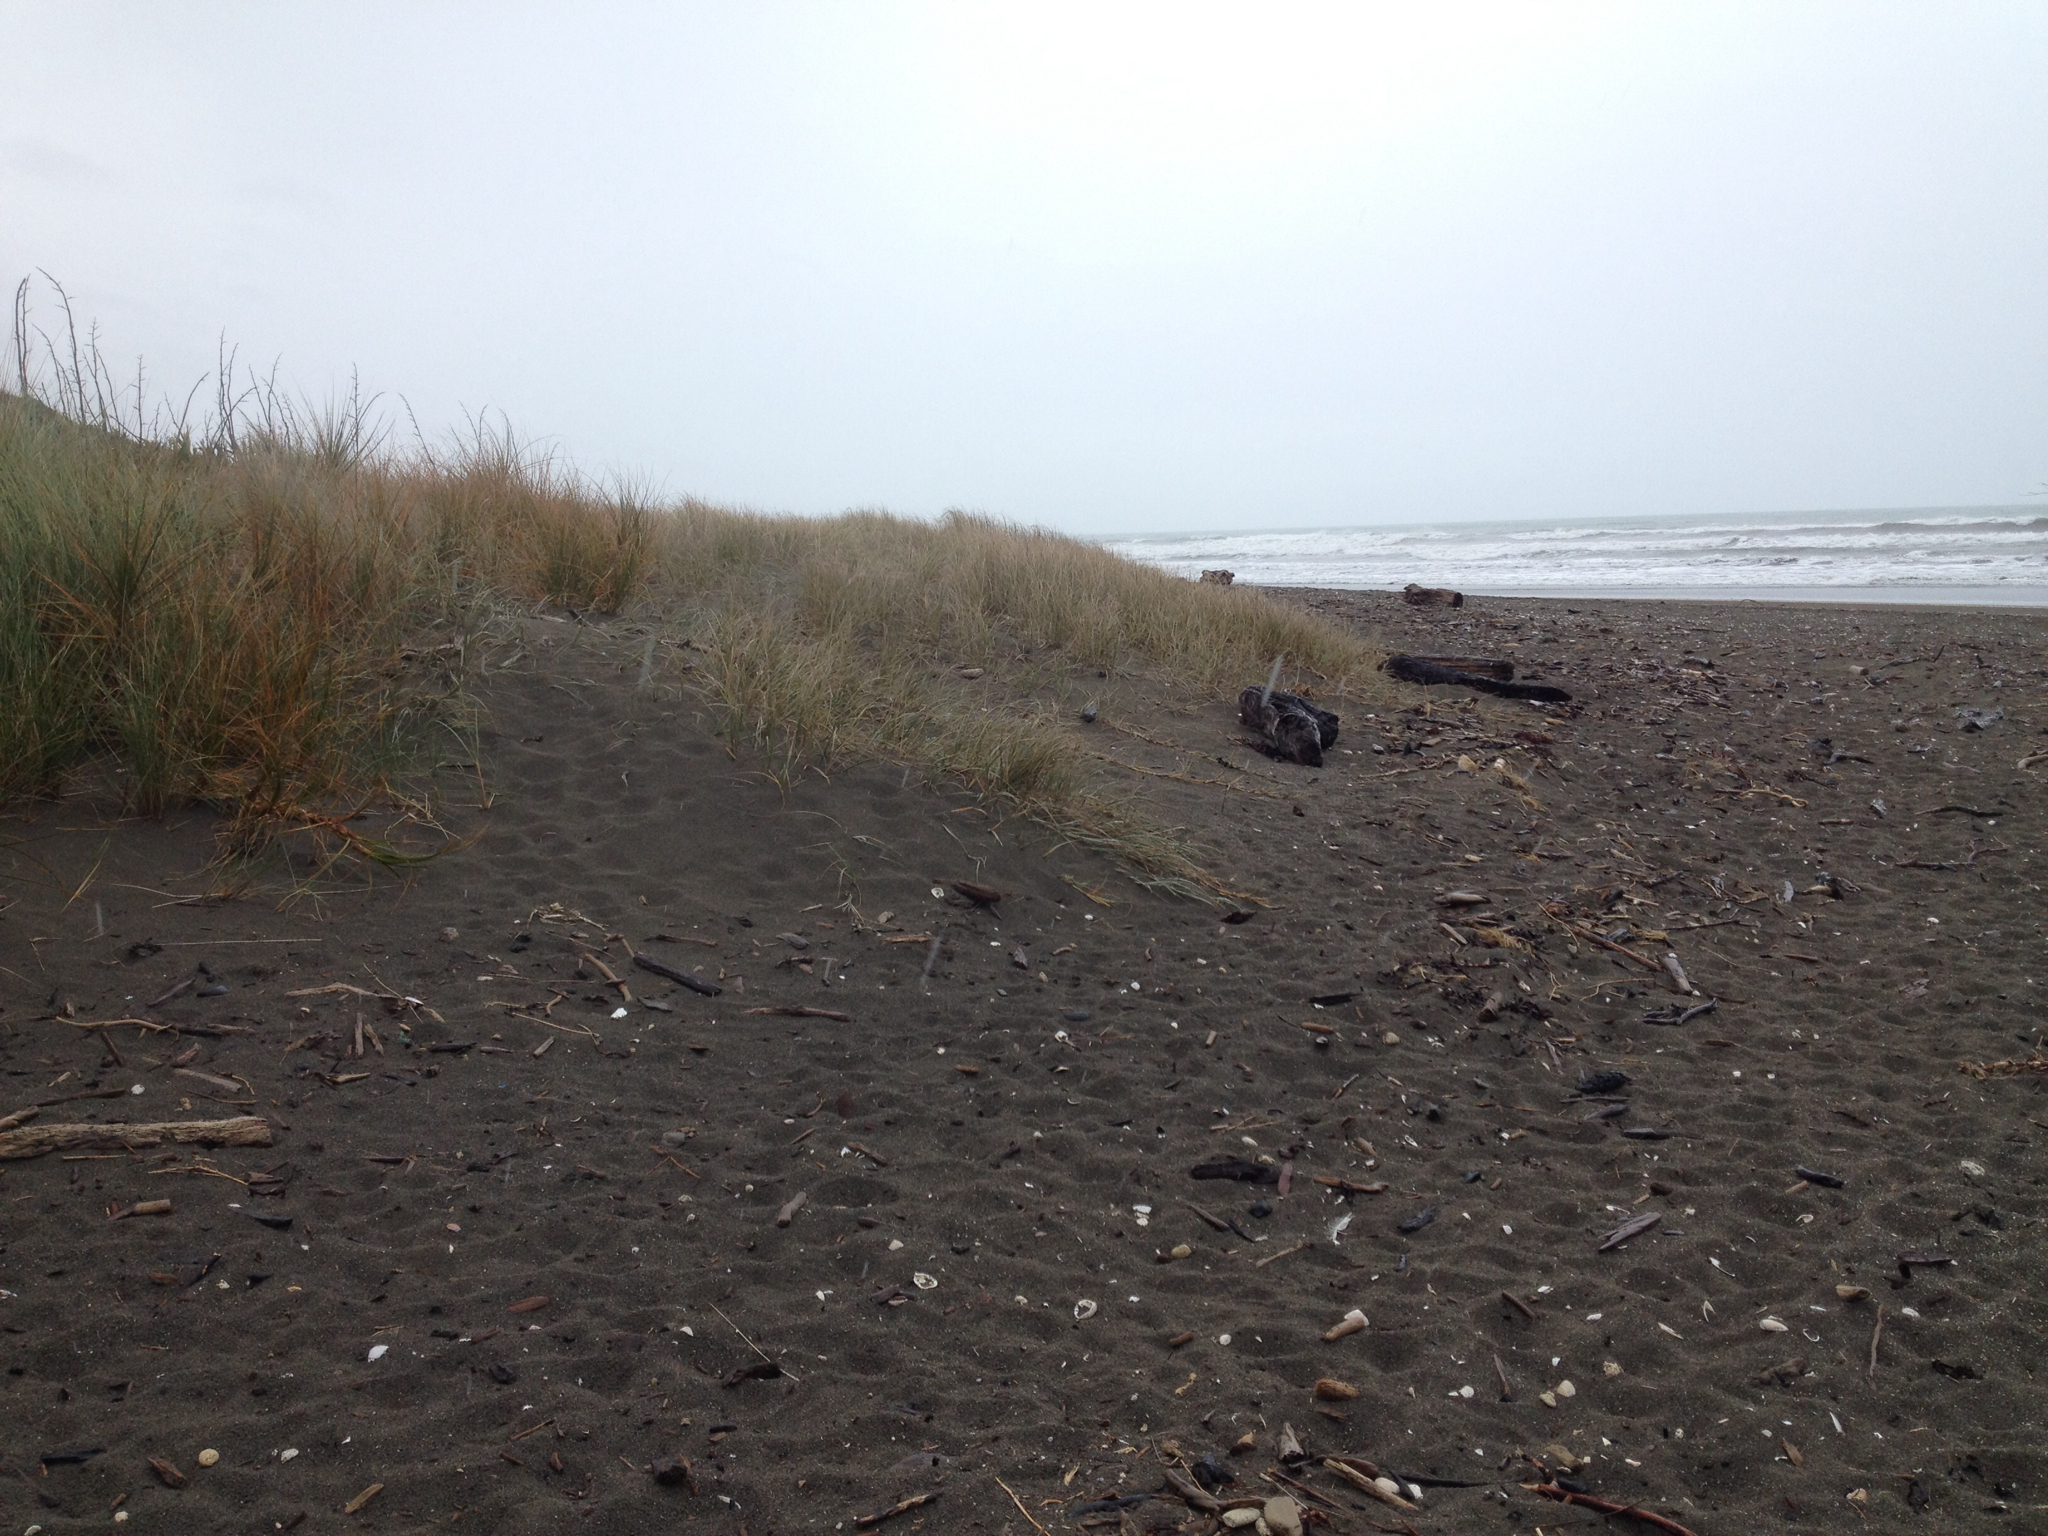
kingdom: Plantae
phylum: Tracheophyta
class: Liliopsida
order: Poales
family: Poaceae
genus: Spinifex
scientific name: Spinifex sericeus
